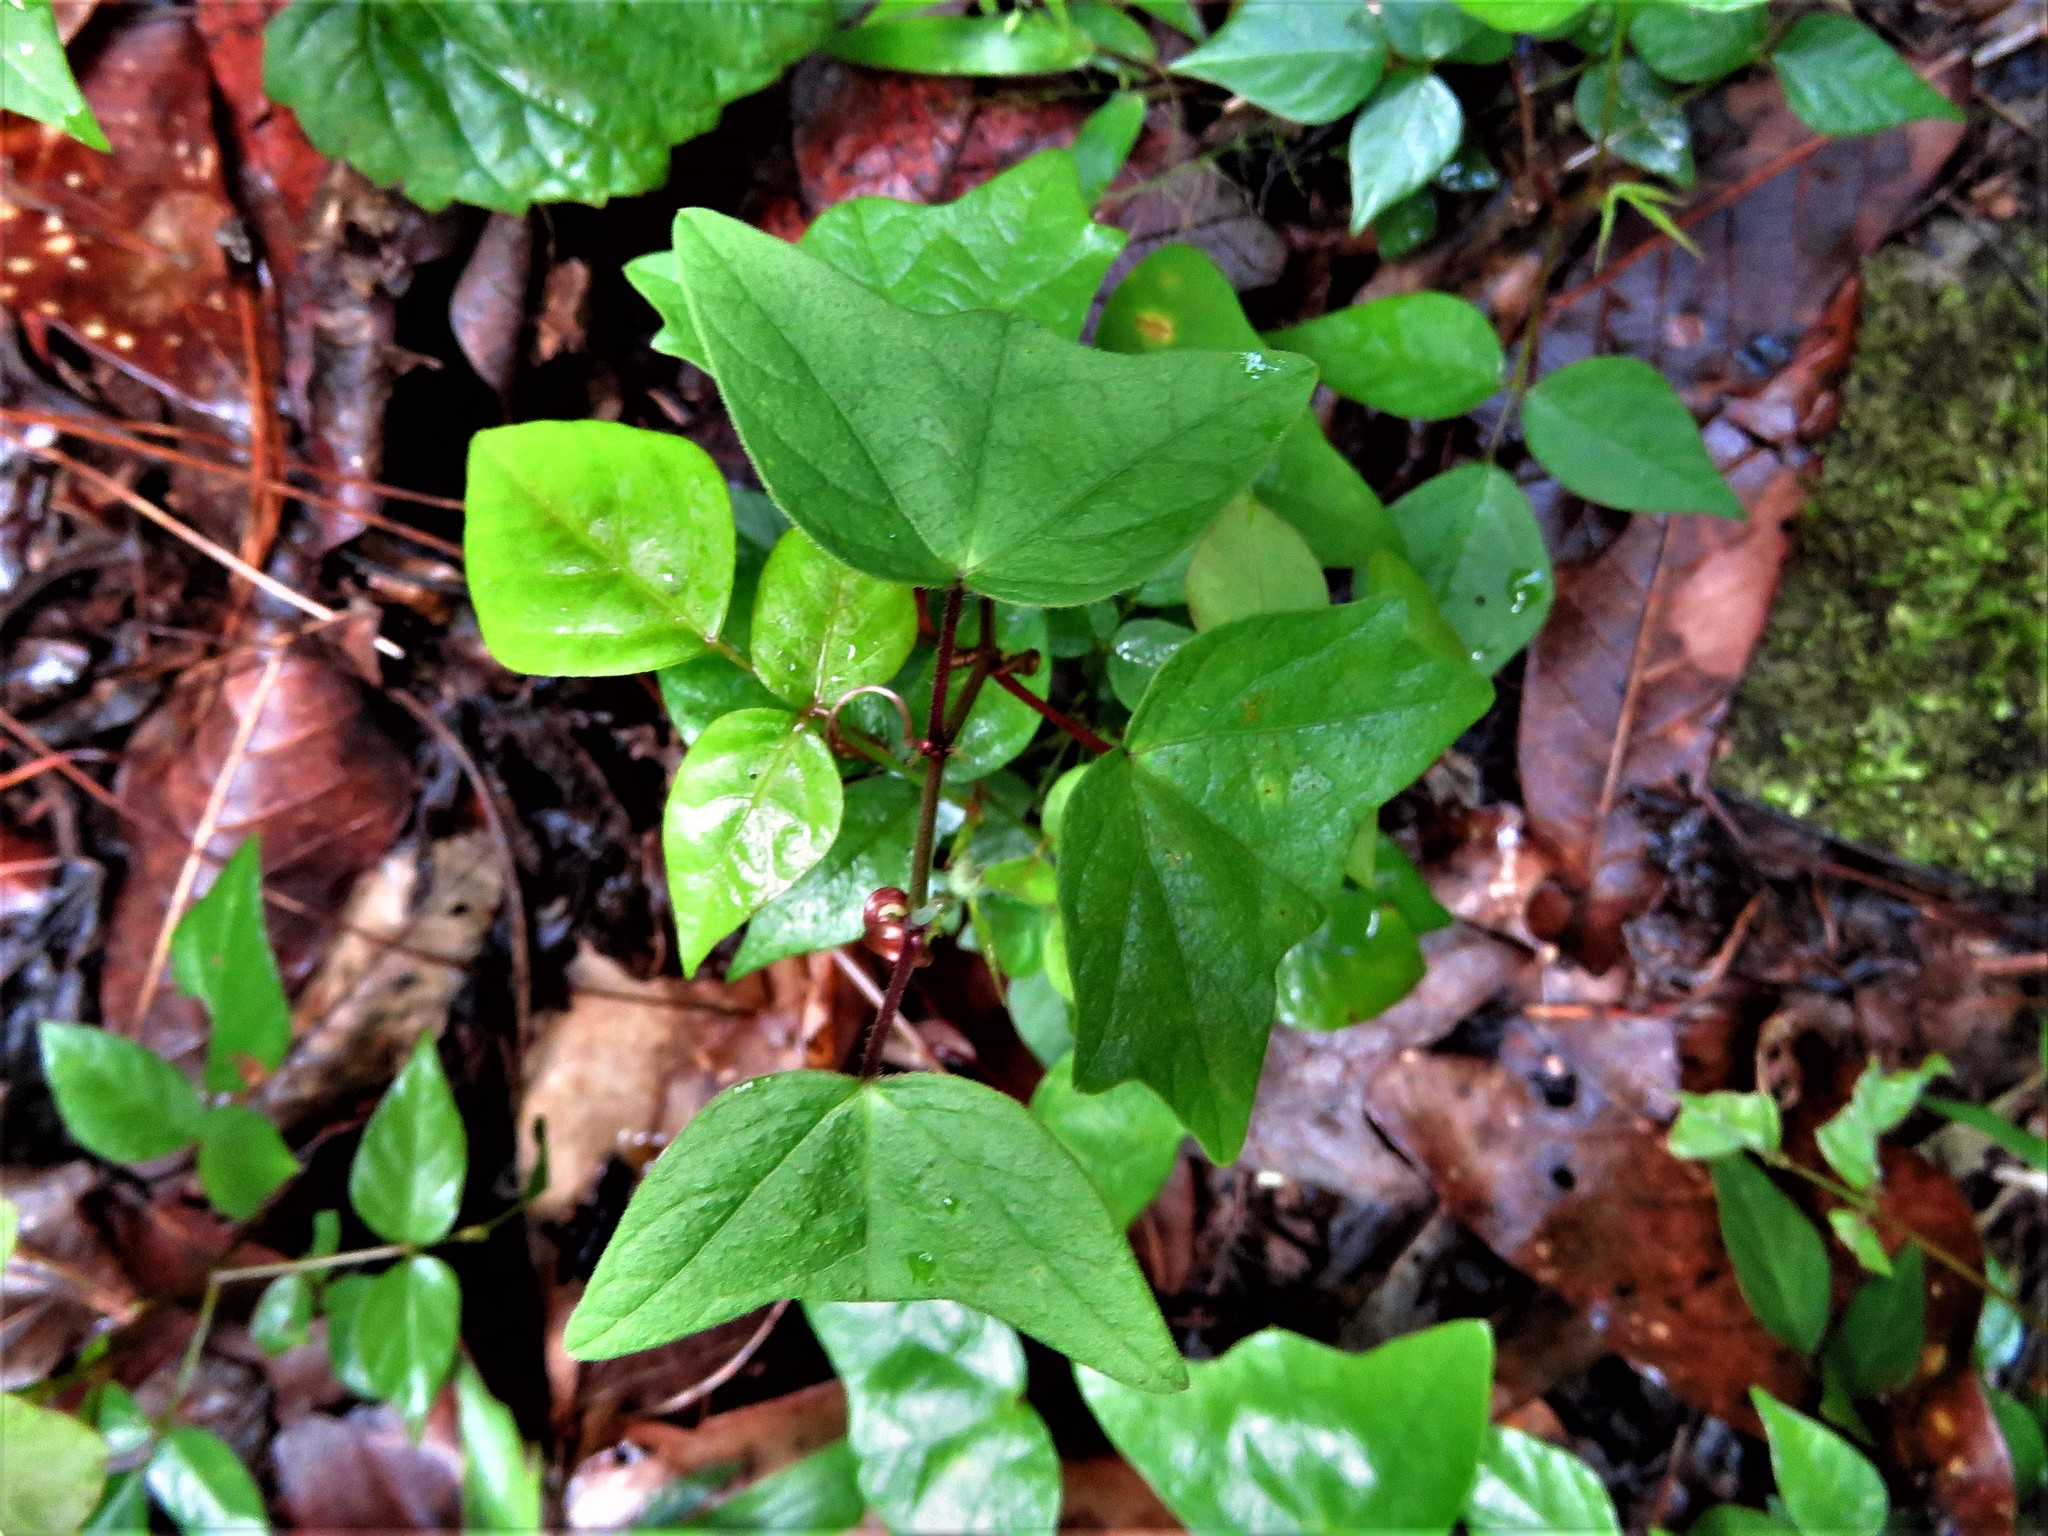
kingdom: Plantae
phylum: Tracheophyta
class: Magnoliopsida
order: Malpighiales
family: Passifloraceae
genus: Passiflora
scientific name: Passiflora conzattiana
